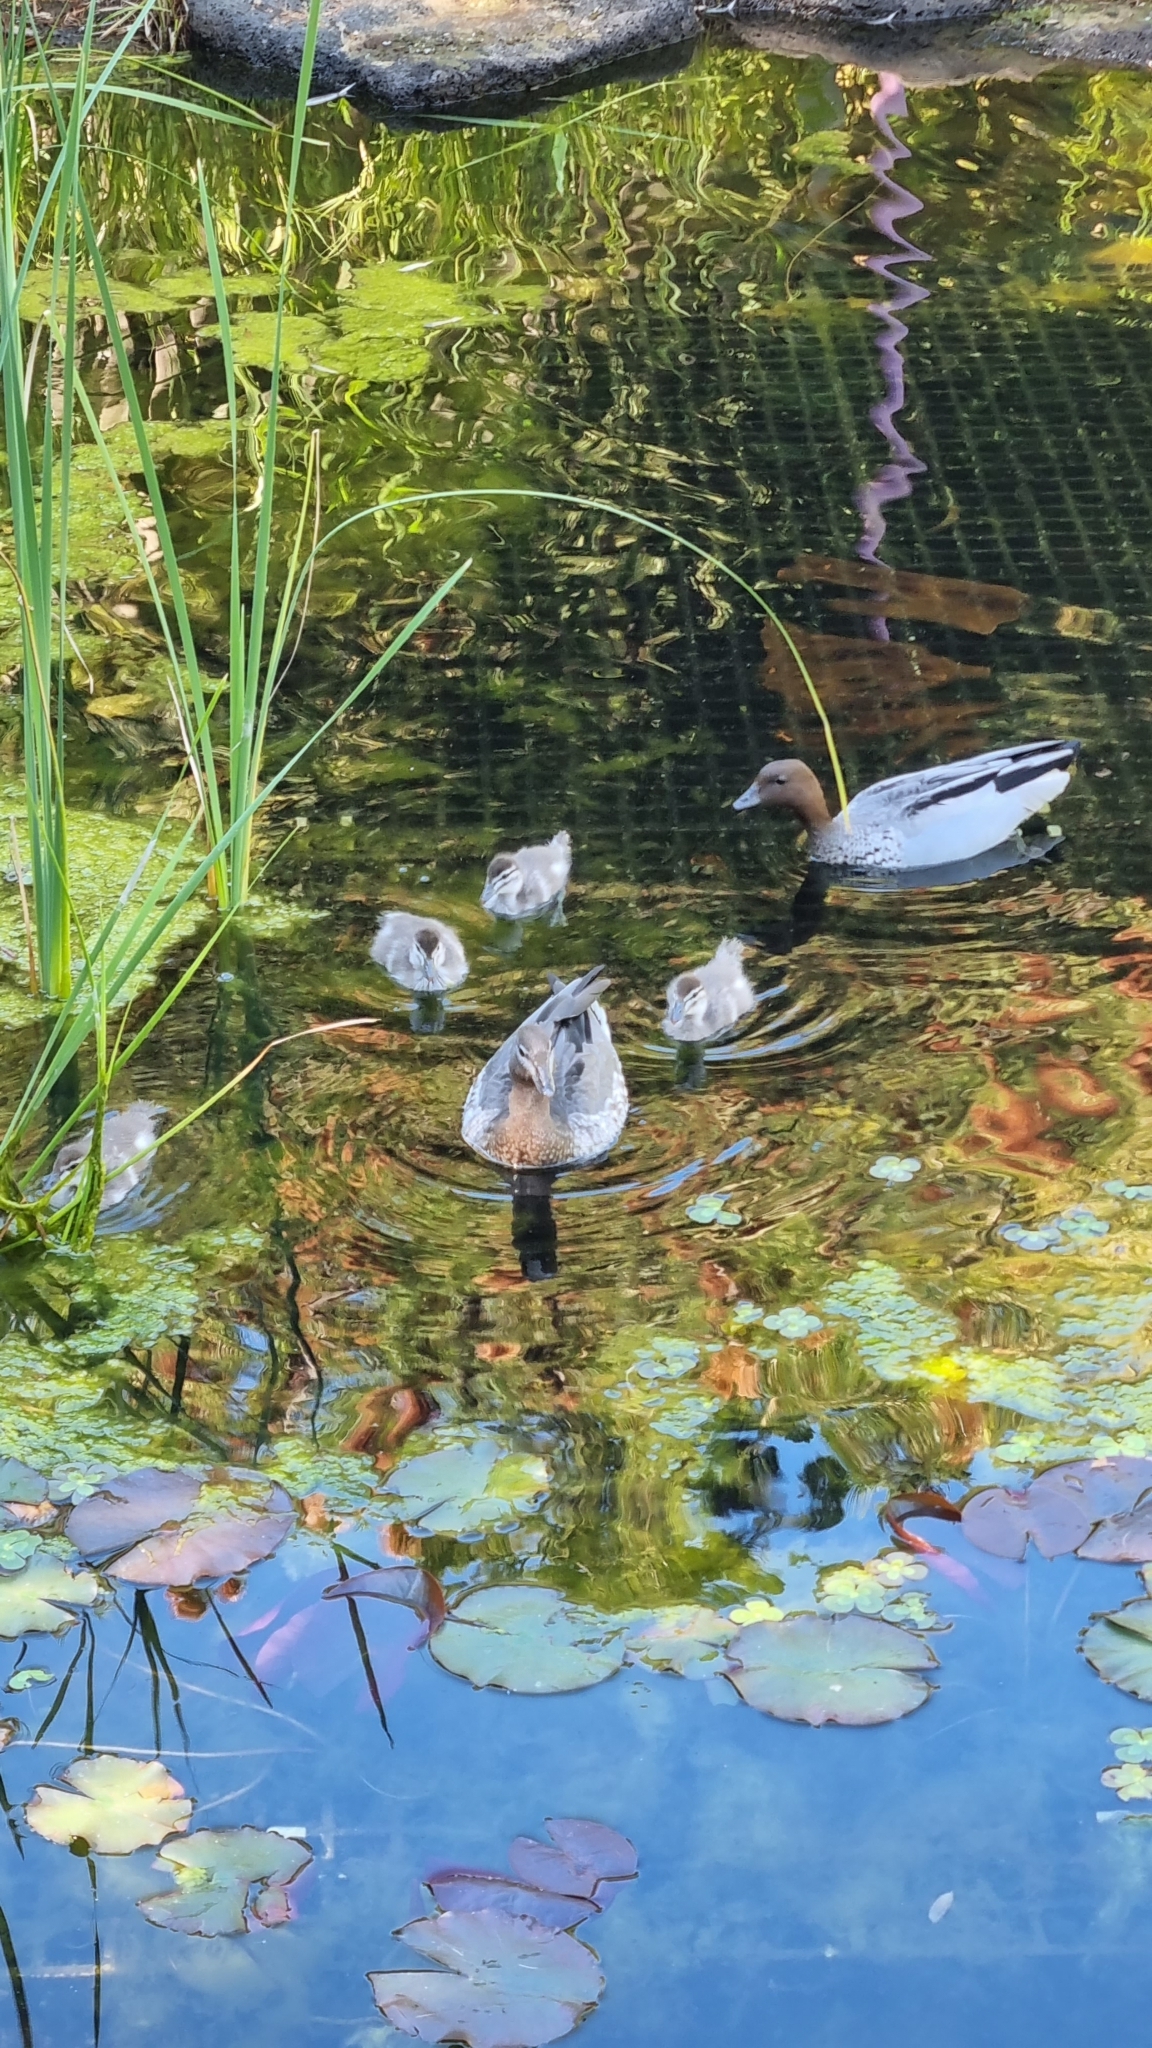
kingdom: Animalia
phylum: Chordata
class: Aves
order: Anseriformes
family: Anatidae
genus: Chenonetta
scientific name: Chenonetta jubata
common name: Maned duck
